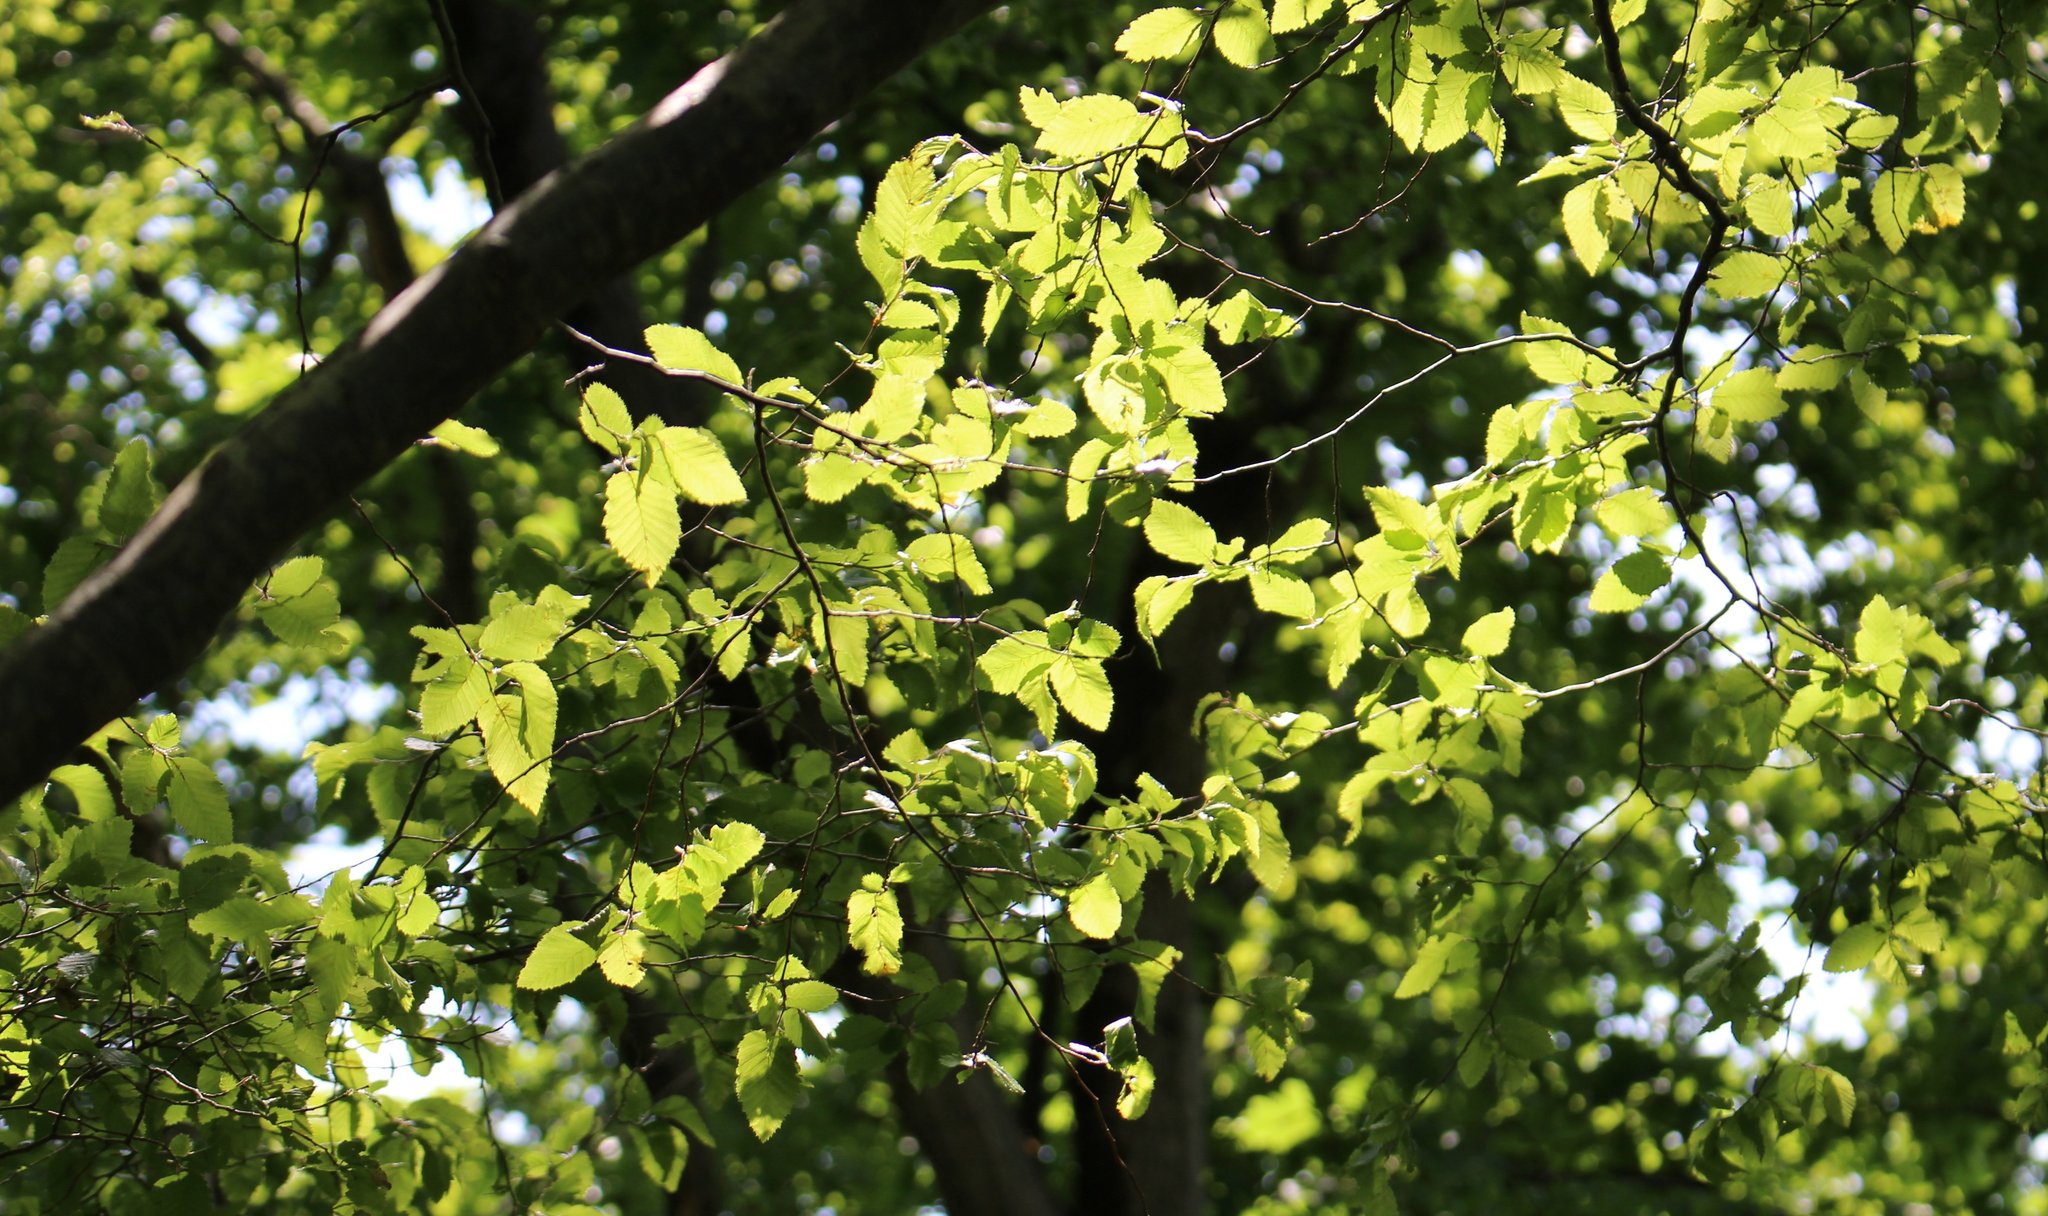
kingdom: Plantae
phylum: Tracheophyta
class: Magnoliopsida
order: Fagales
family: Betulaceae
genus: Carpinus
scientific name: Carpinus orientalis
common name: Eastern hornbeam
